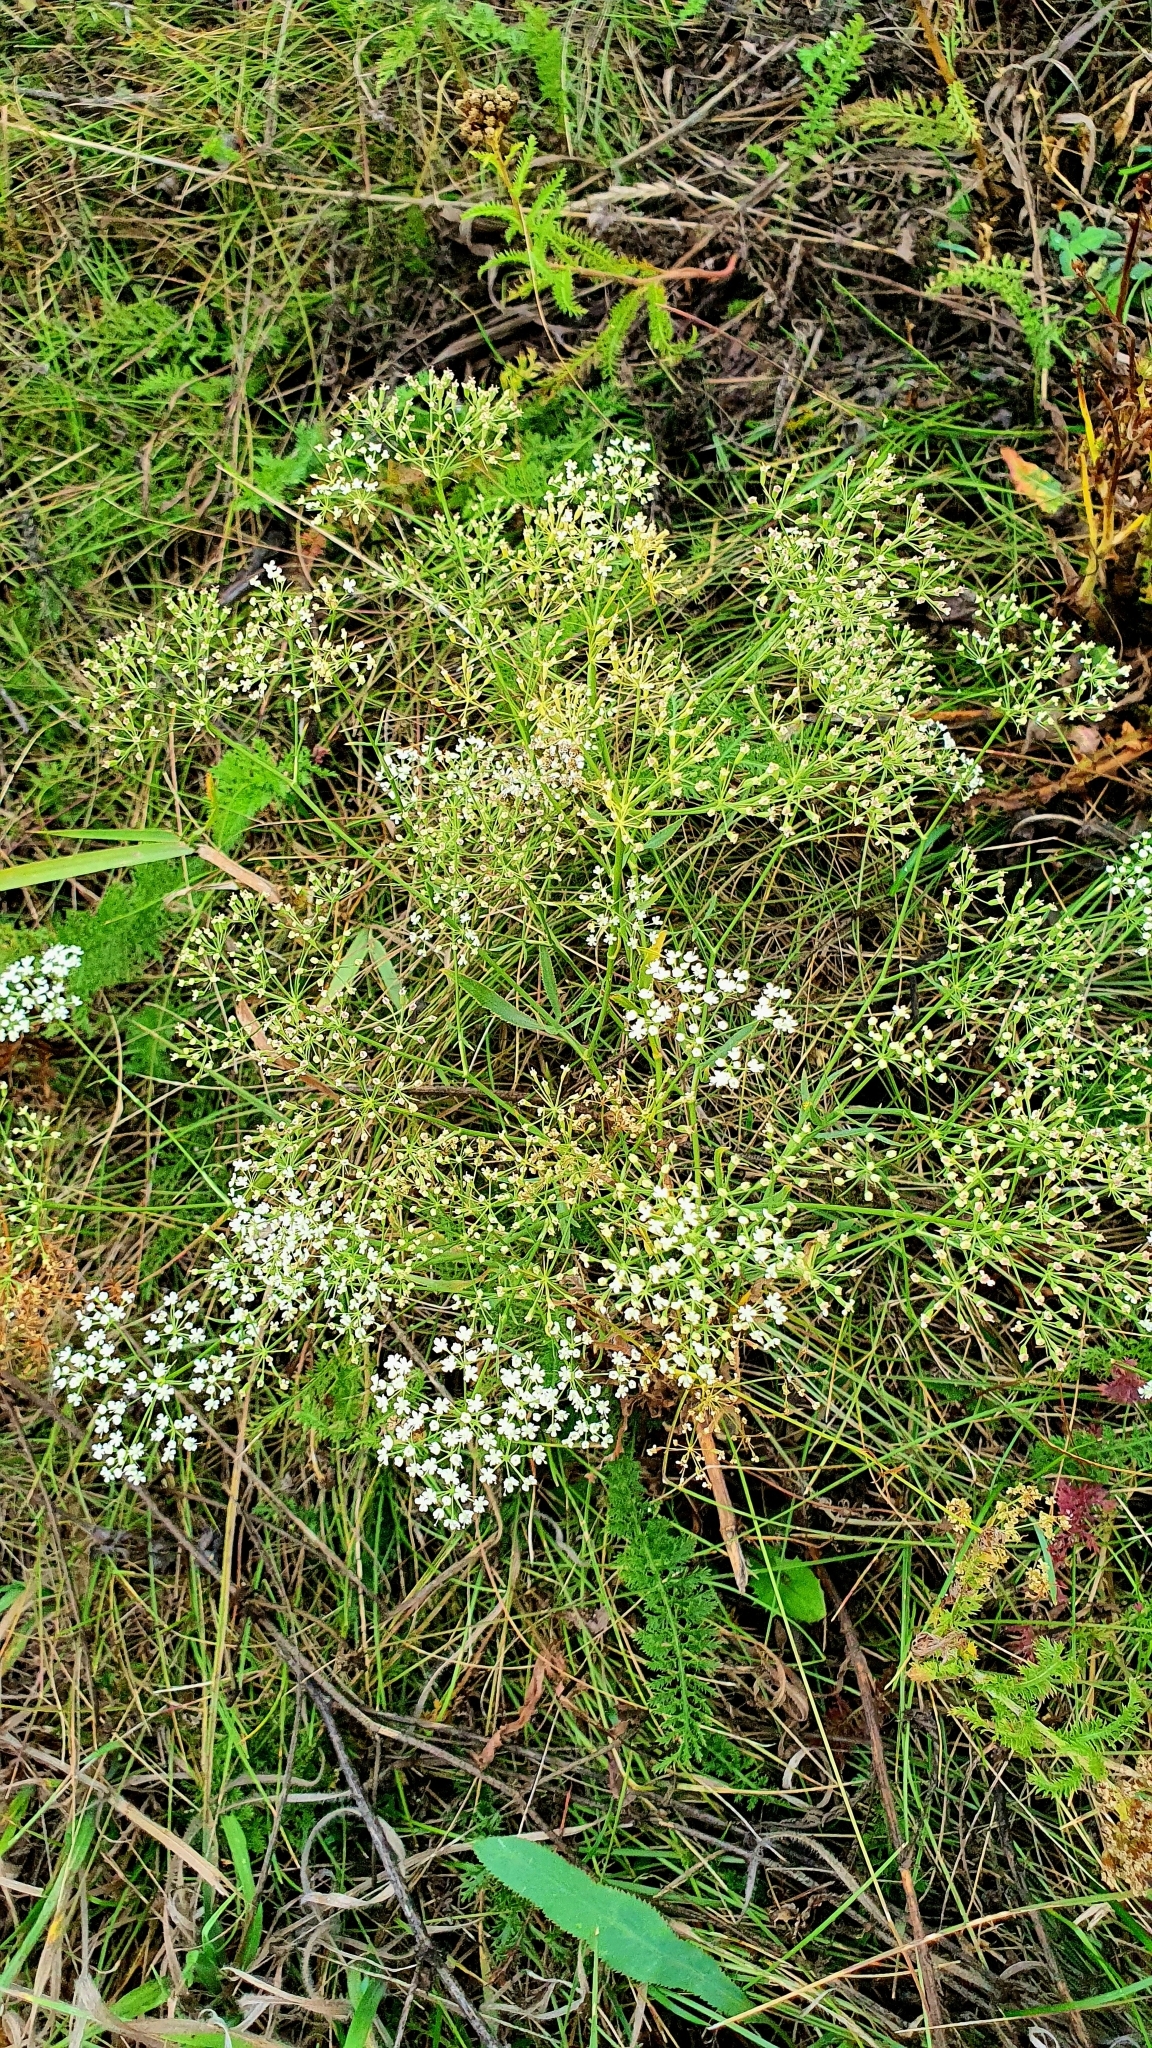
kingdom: Plantae
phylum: Tracheophyta
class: Magnoliopsida
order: Apiales
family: Apiaceae
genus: Falcaria
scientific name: Falcaria vulgaris
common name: Longleaf
